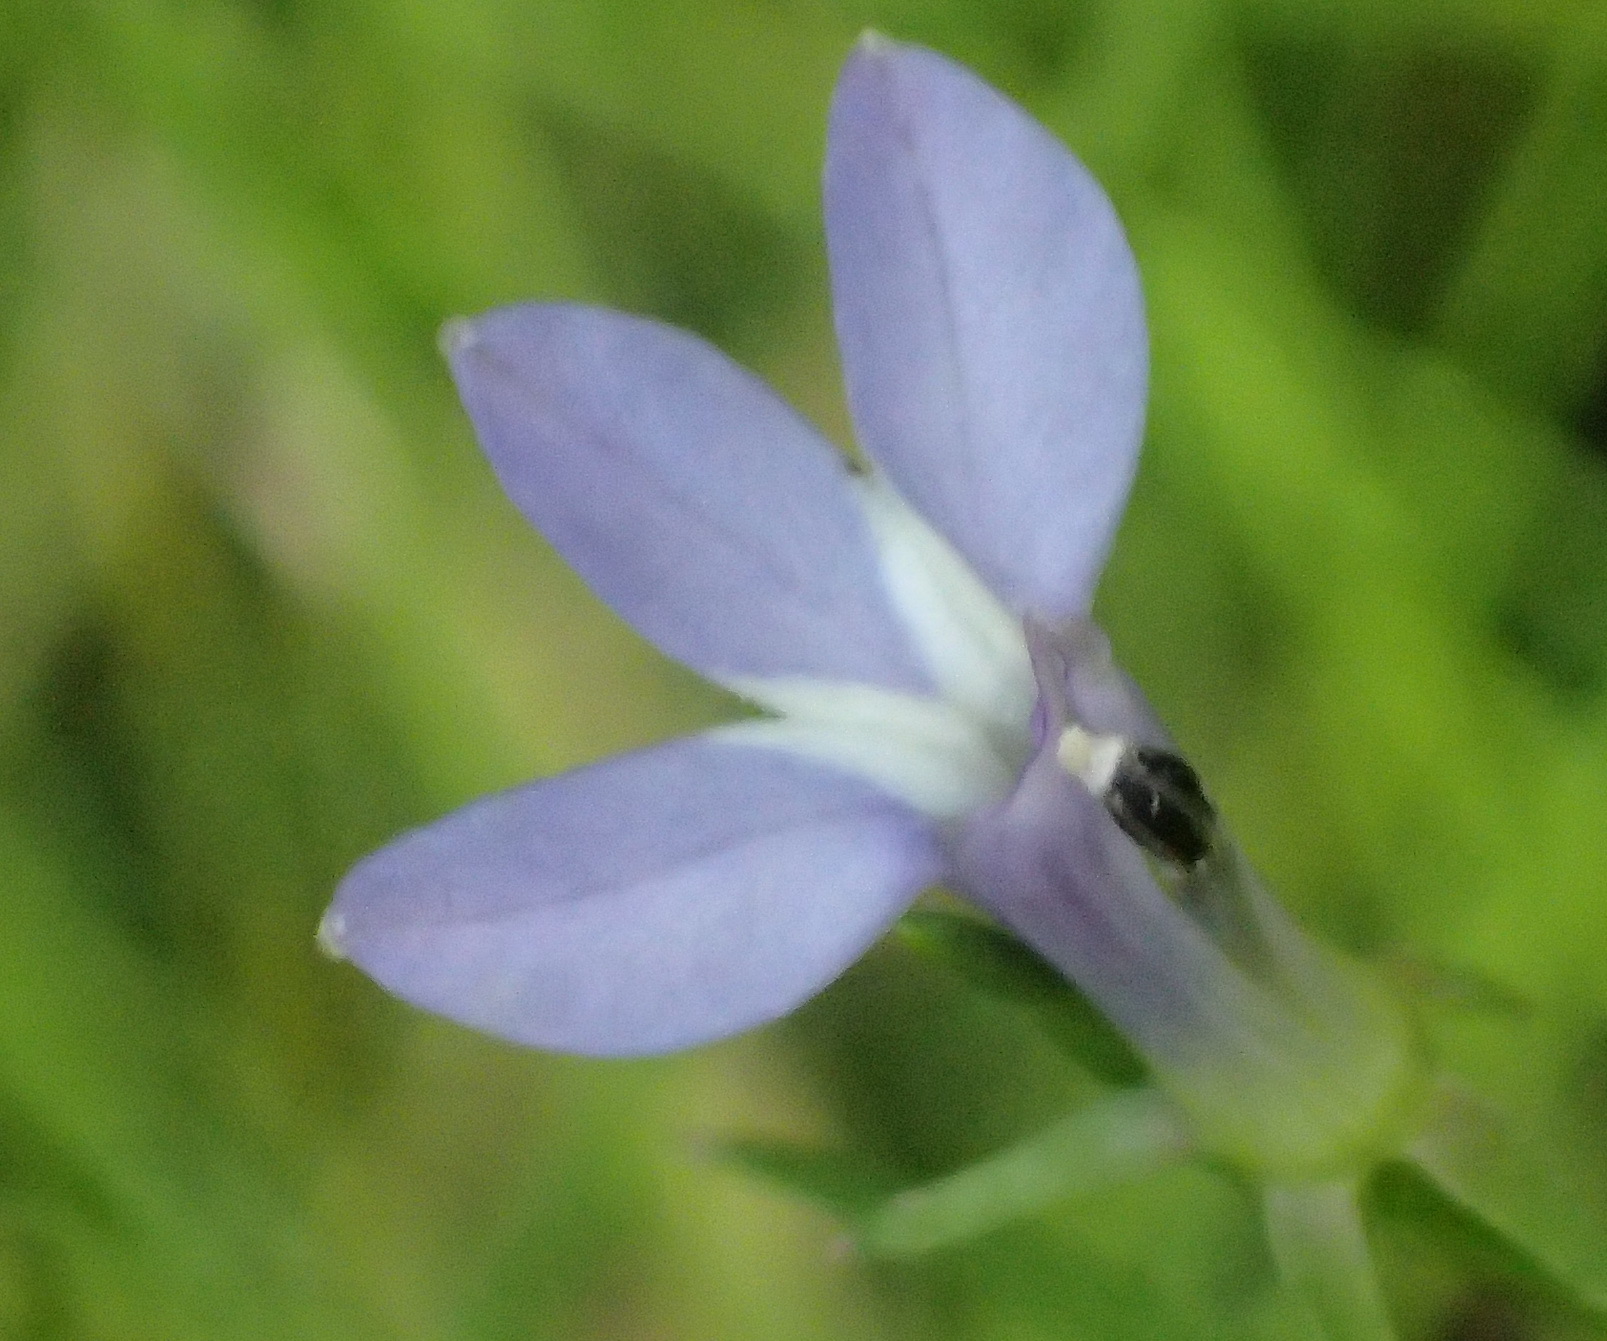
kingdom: Plantae
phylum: Tracheophyta
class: Magnoliopsida
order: Asterales
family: Campanulaceae
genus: Grammatotheca
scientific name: Grammatotheca bergiana
